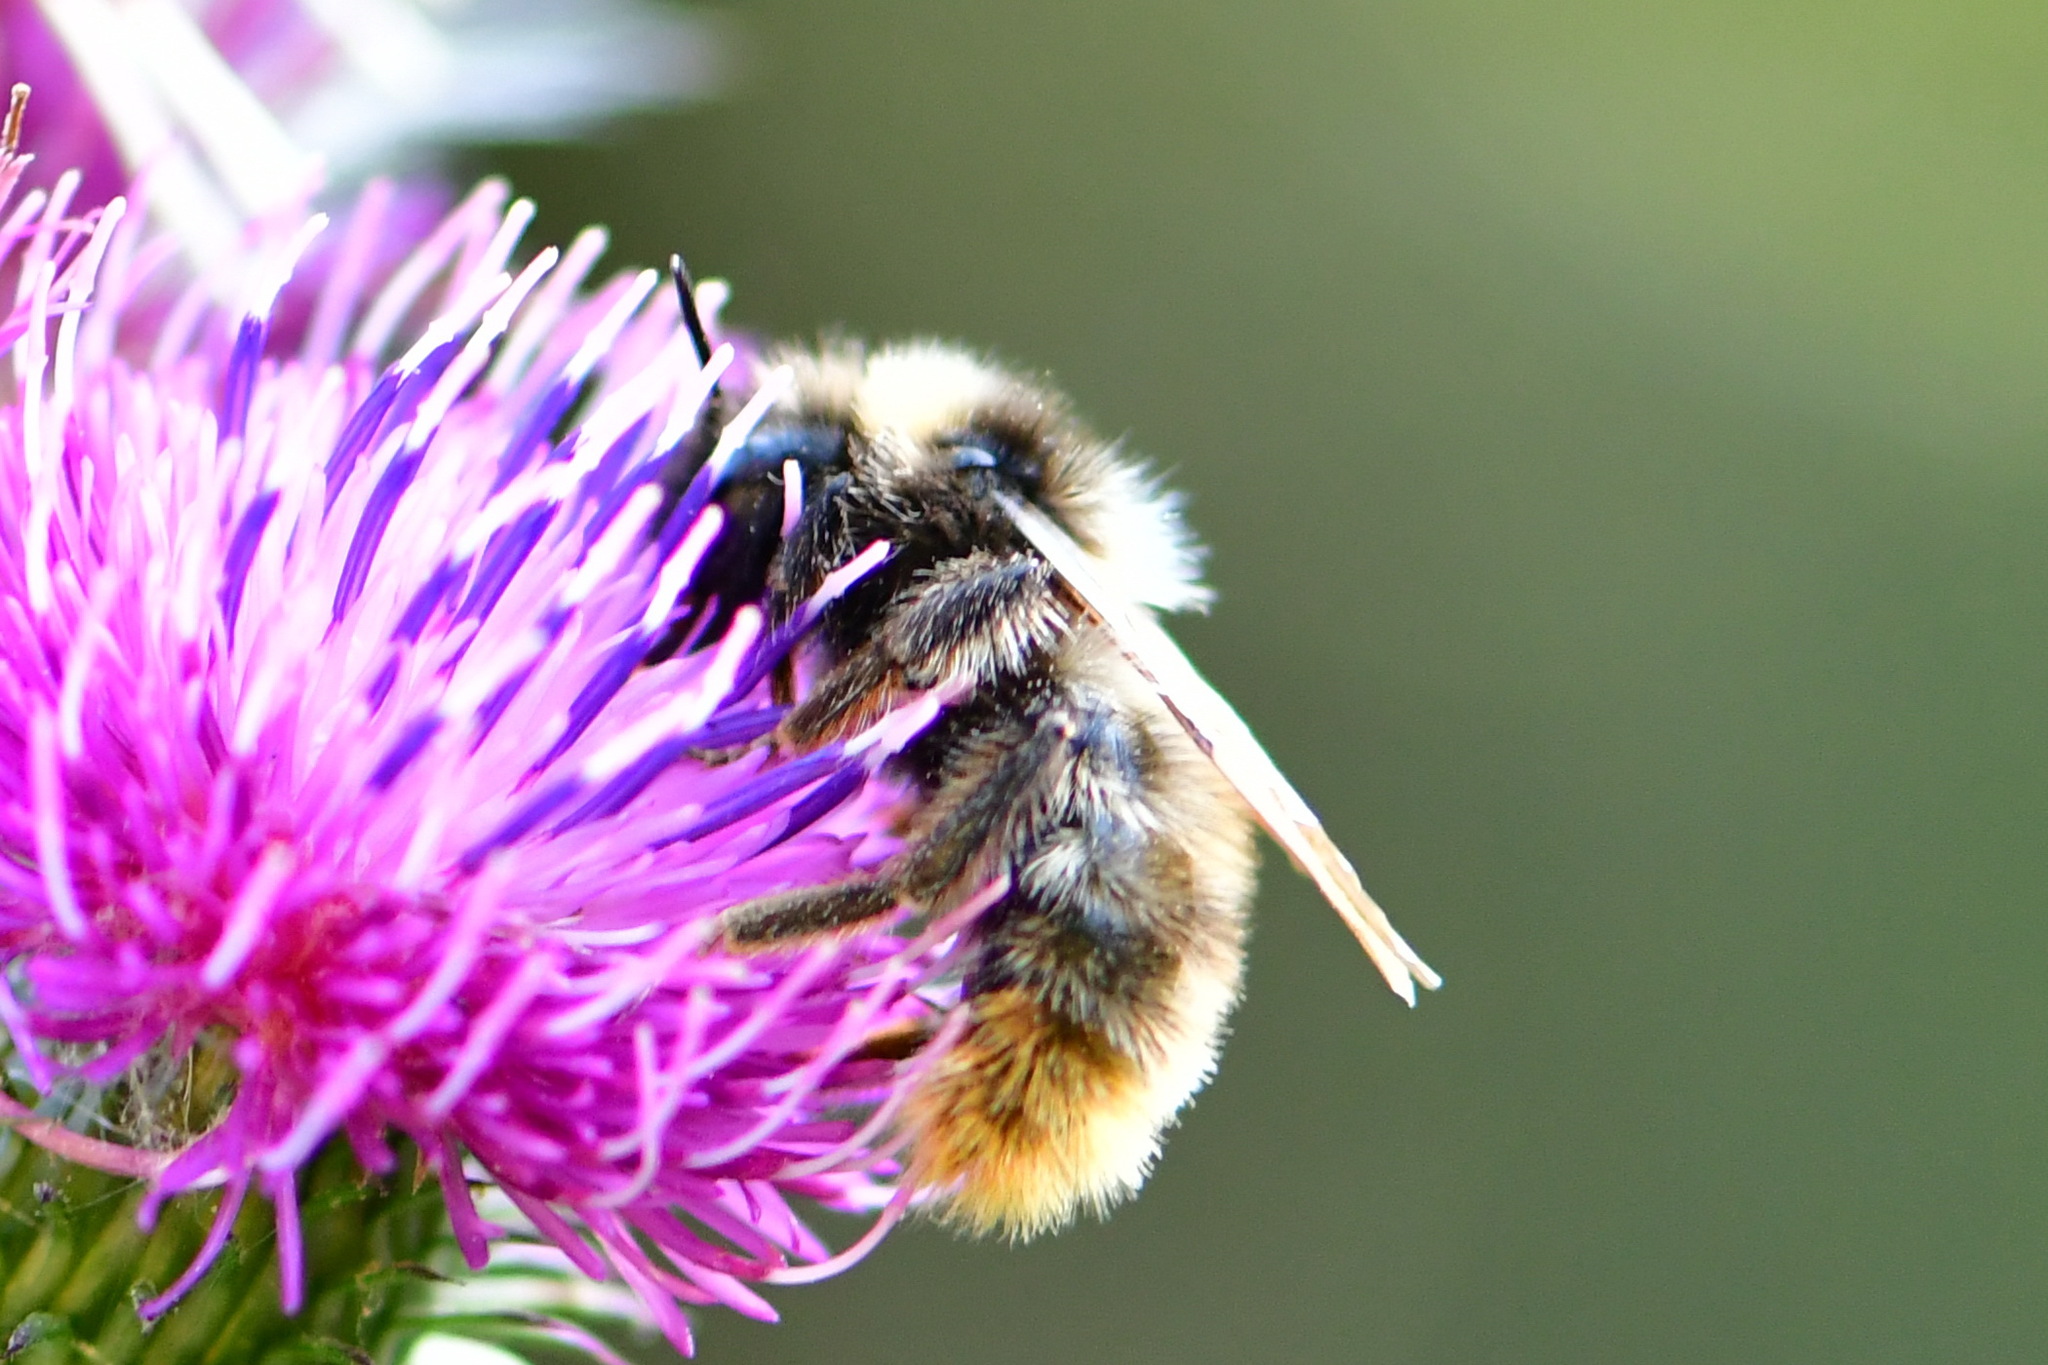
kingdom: Animalia
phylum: Arthropoda
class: Insecta
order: Hymenoptera
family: Apidae
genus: Bombus
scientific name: Bombus rupestris
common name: Hill cuckoo-bee
